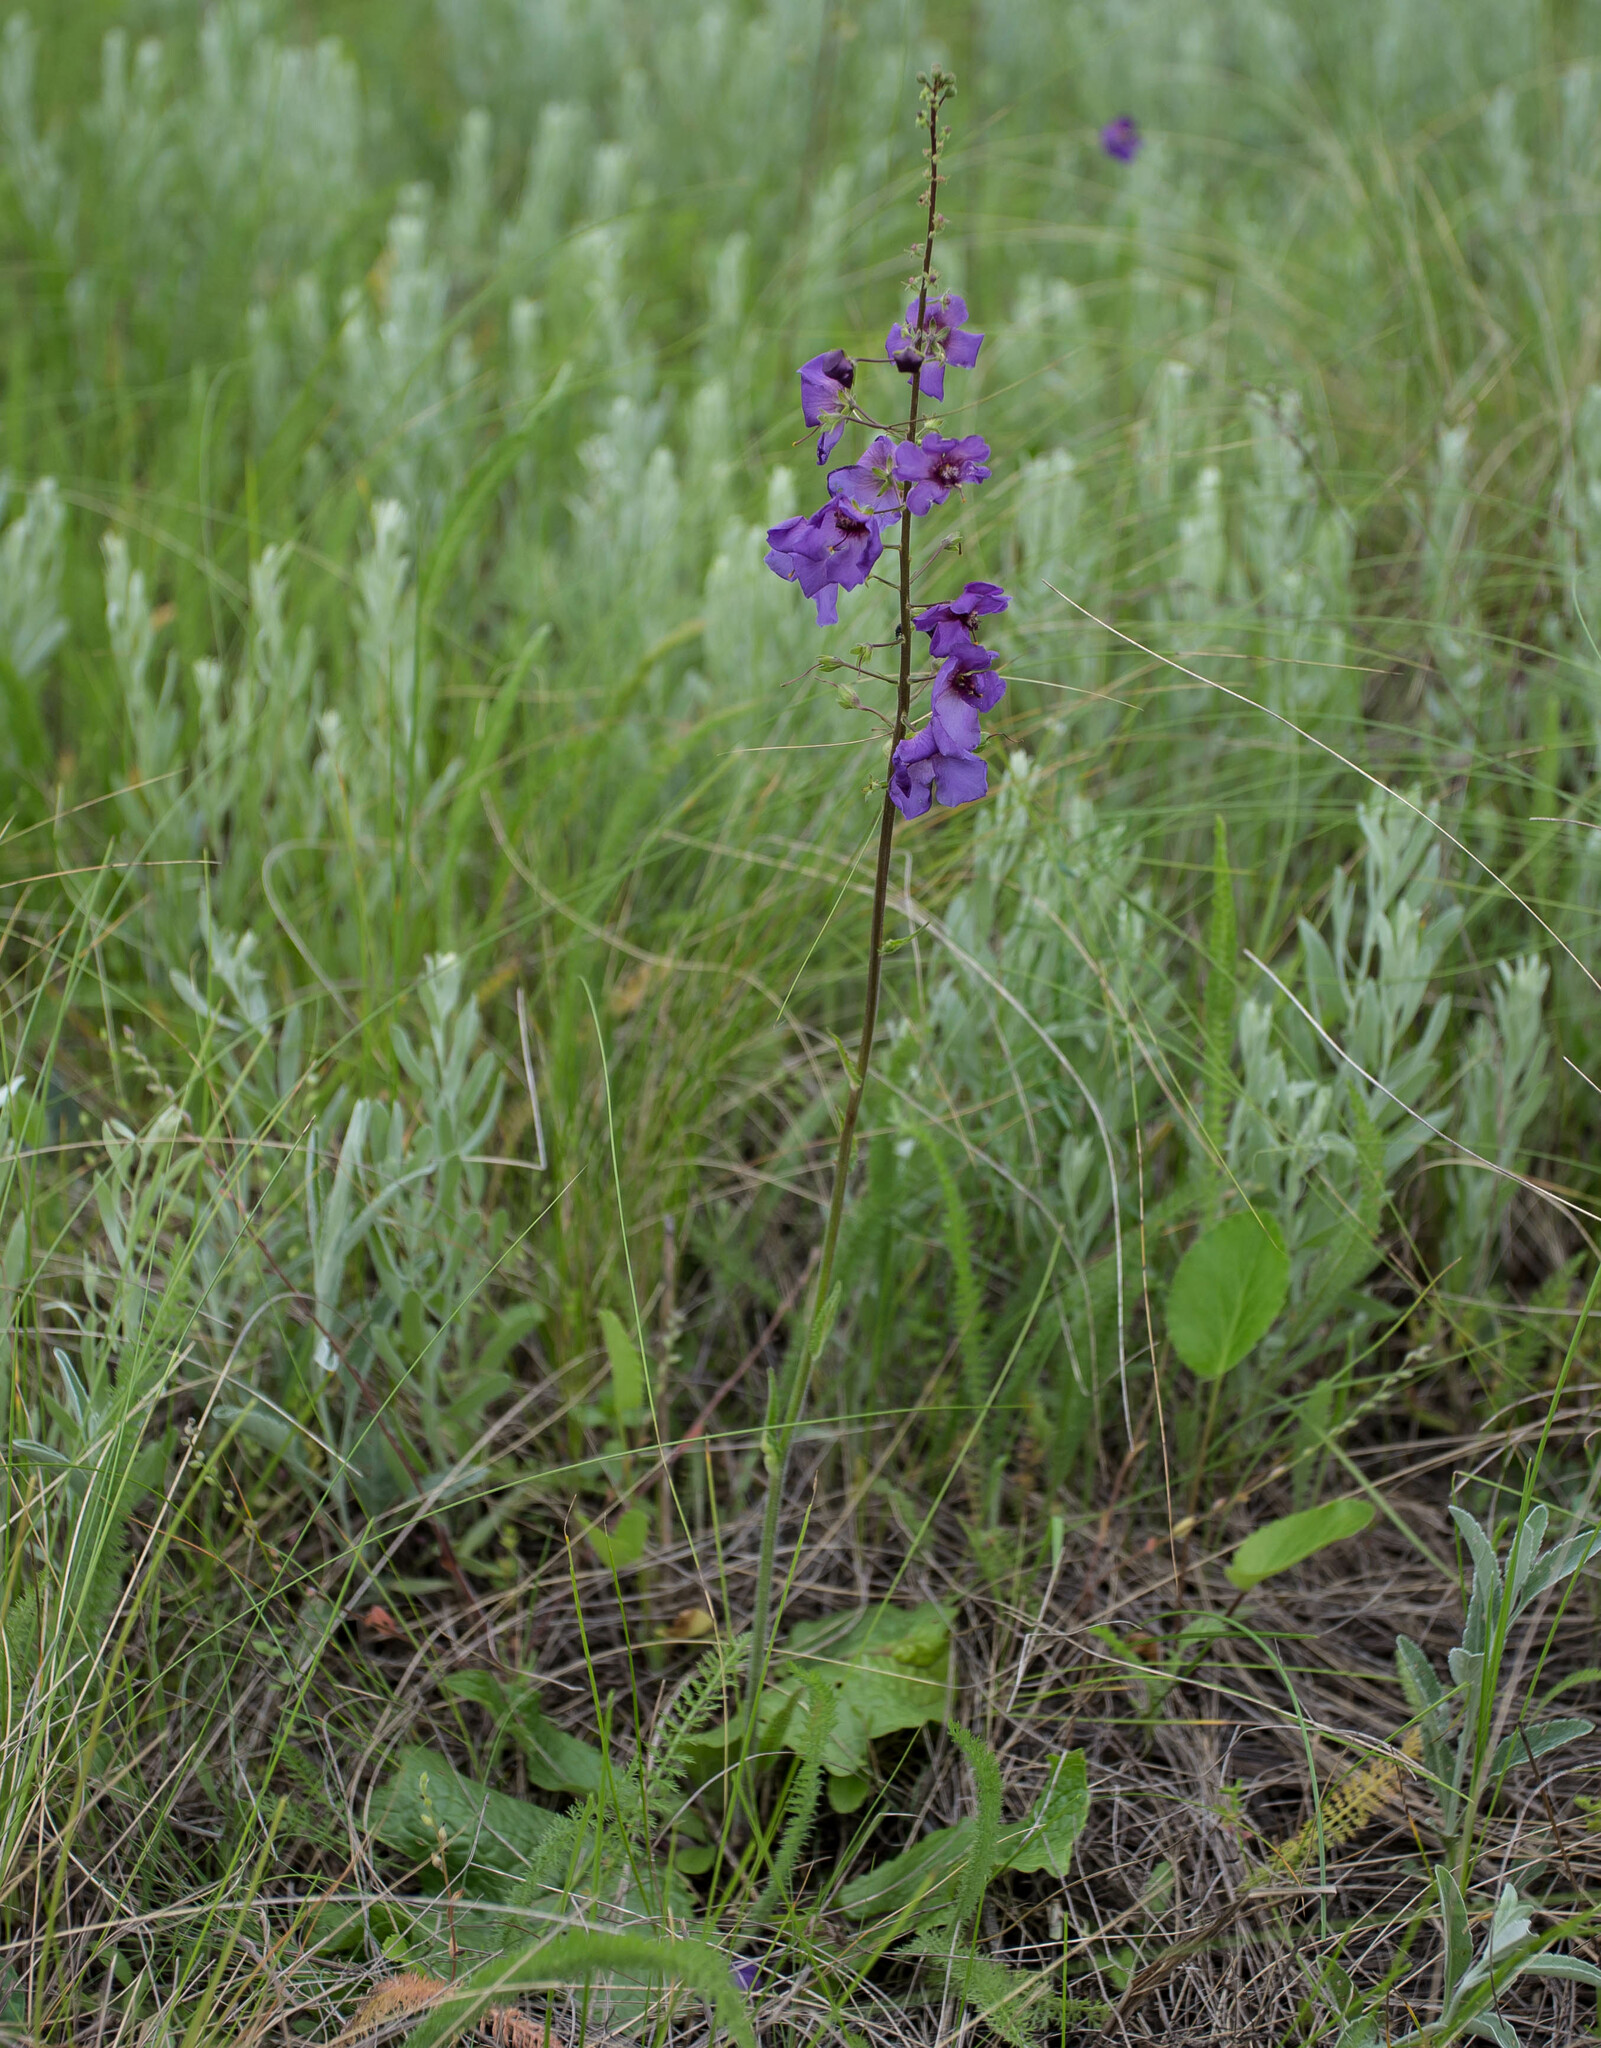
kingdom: Plantae
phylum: Tracheophyta
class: Magnoliopsida
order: Lamiales
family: Scrophulariaceae
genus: Verbascum
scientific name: Verbascum phoeniceum
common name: Purple mullein
